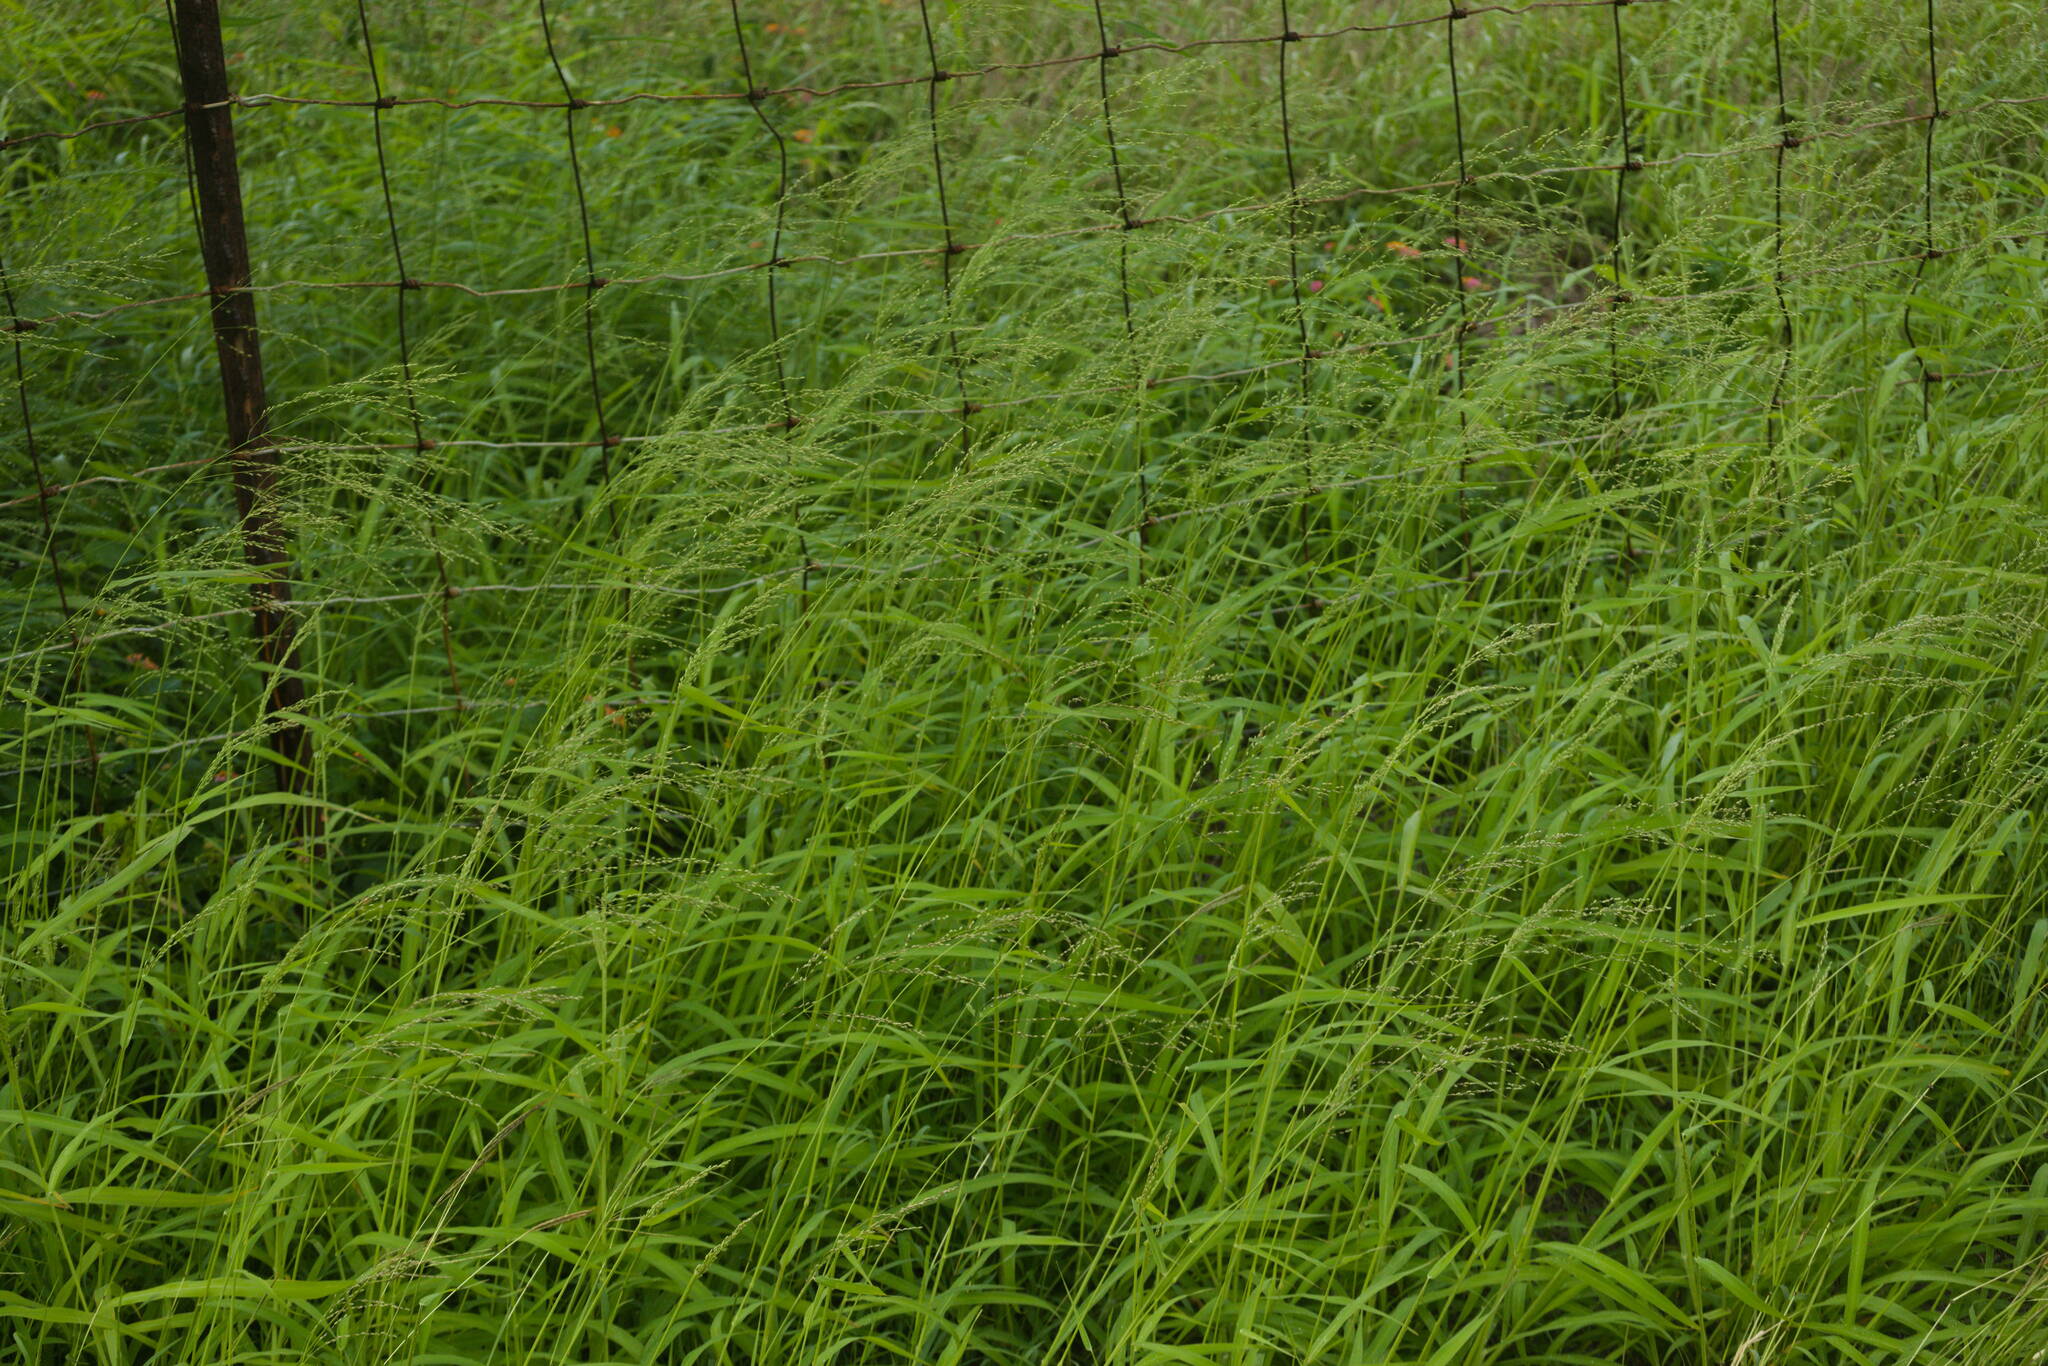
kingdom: Plantae
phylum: Tracheophyta
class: Liliopsida
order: Poales
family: Poaceae
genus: Megathyrsus
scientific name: Megathyrsus maximus
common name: Guineagrass
